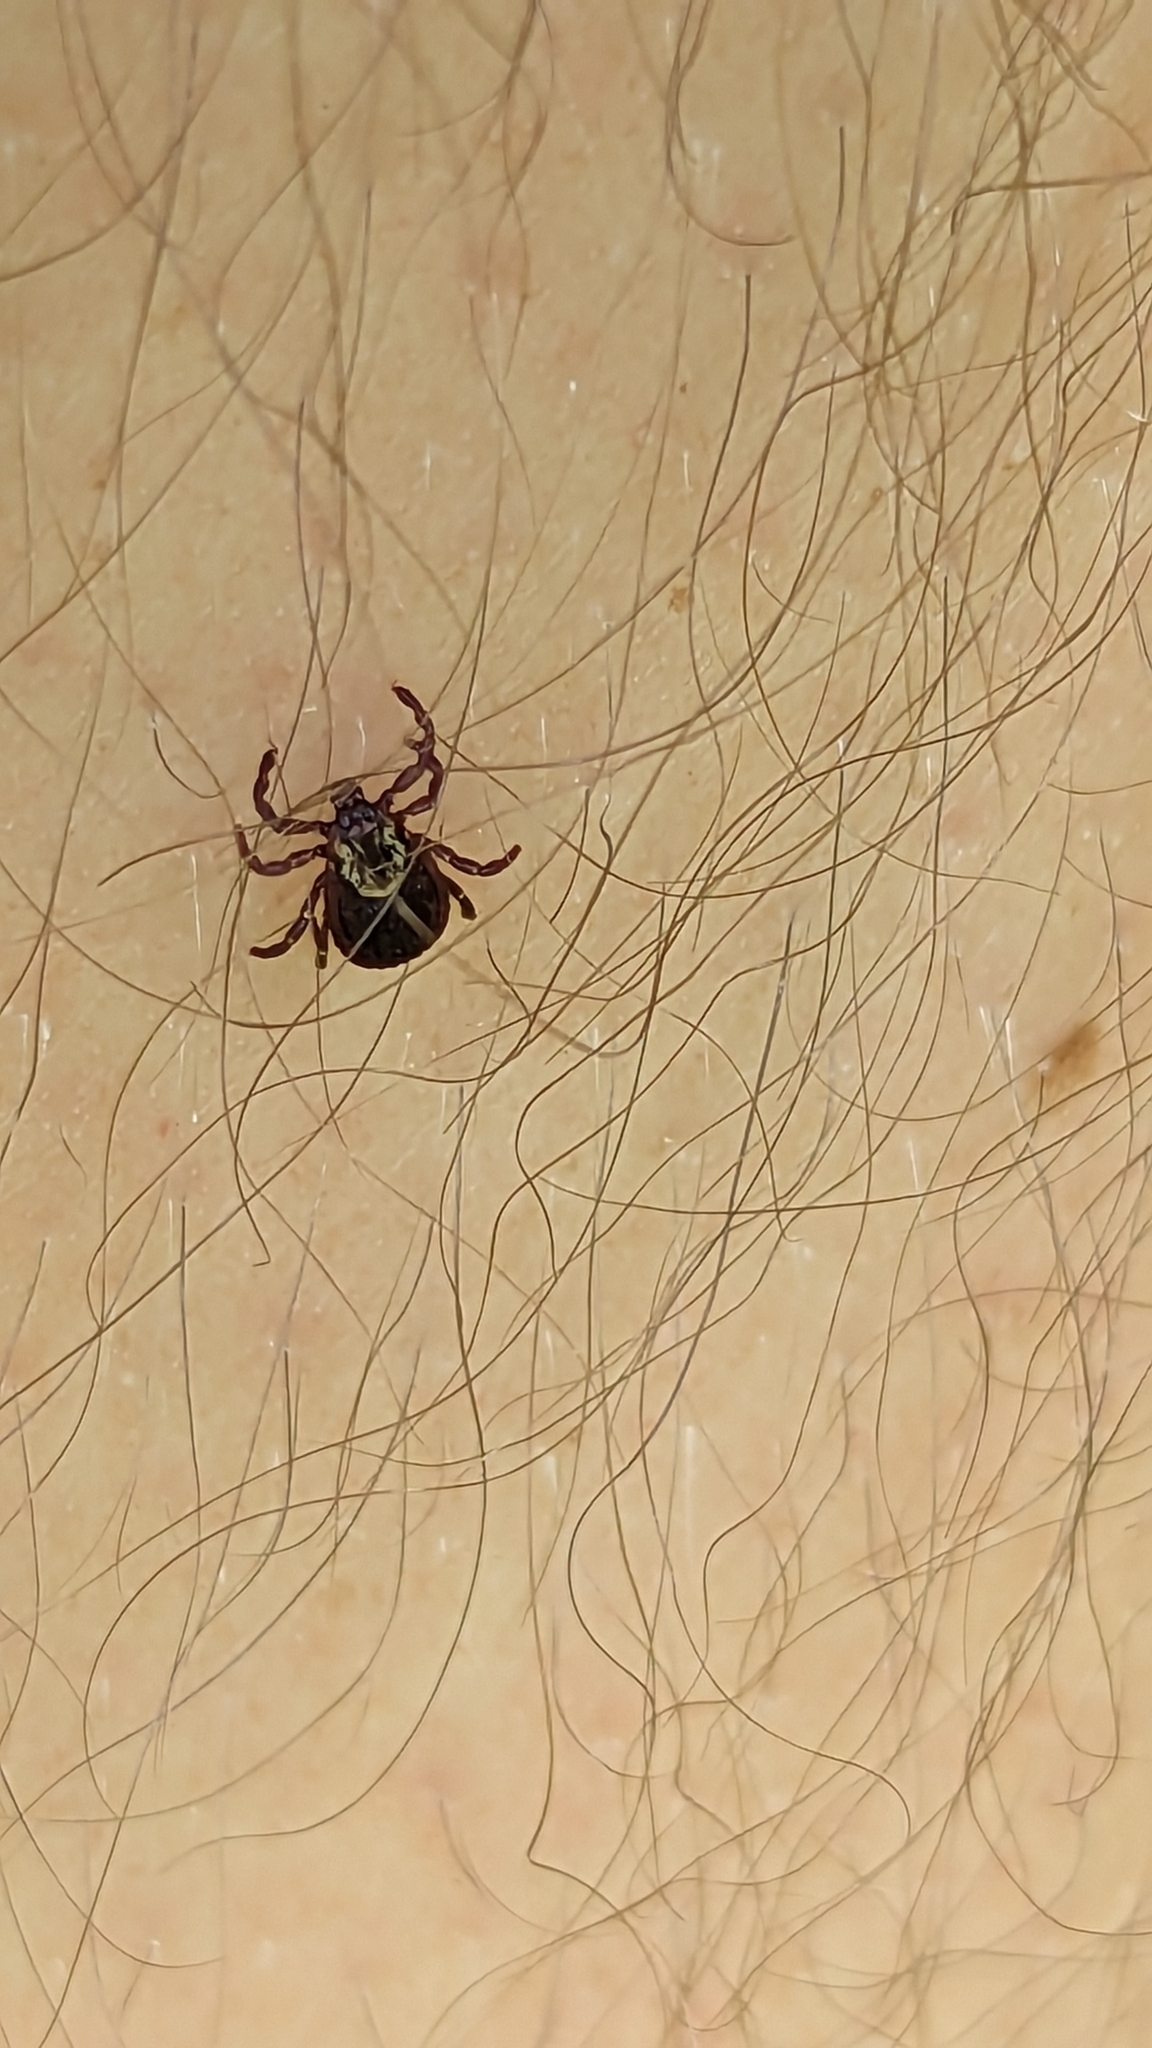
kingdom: Animalia
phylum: Arthropoda
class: Arachnida
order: Ixodida
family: Ixodidae
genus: Dermacentor
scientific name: Dermacentor variabilis
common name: American dog tick
